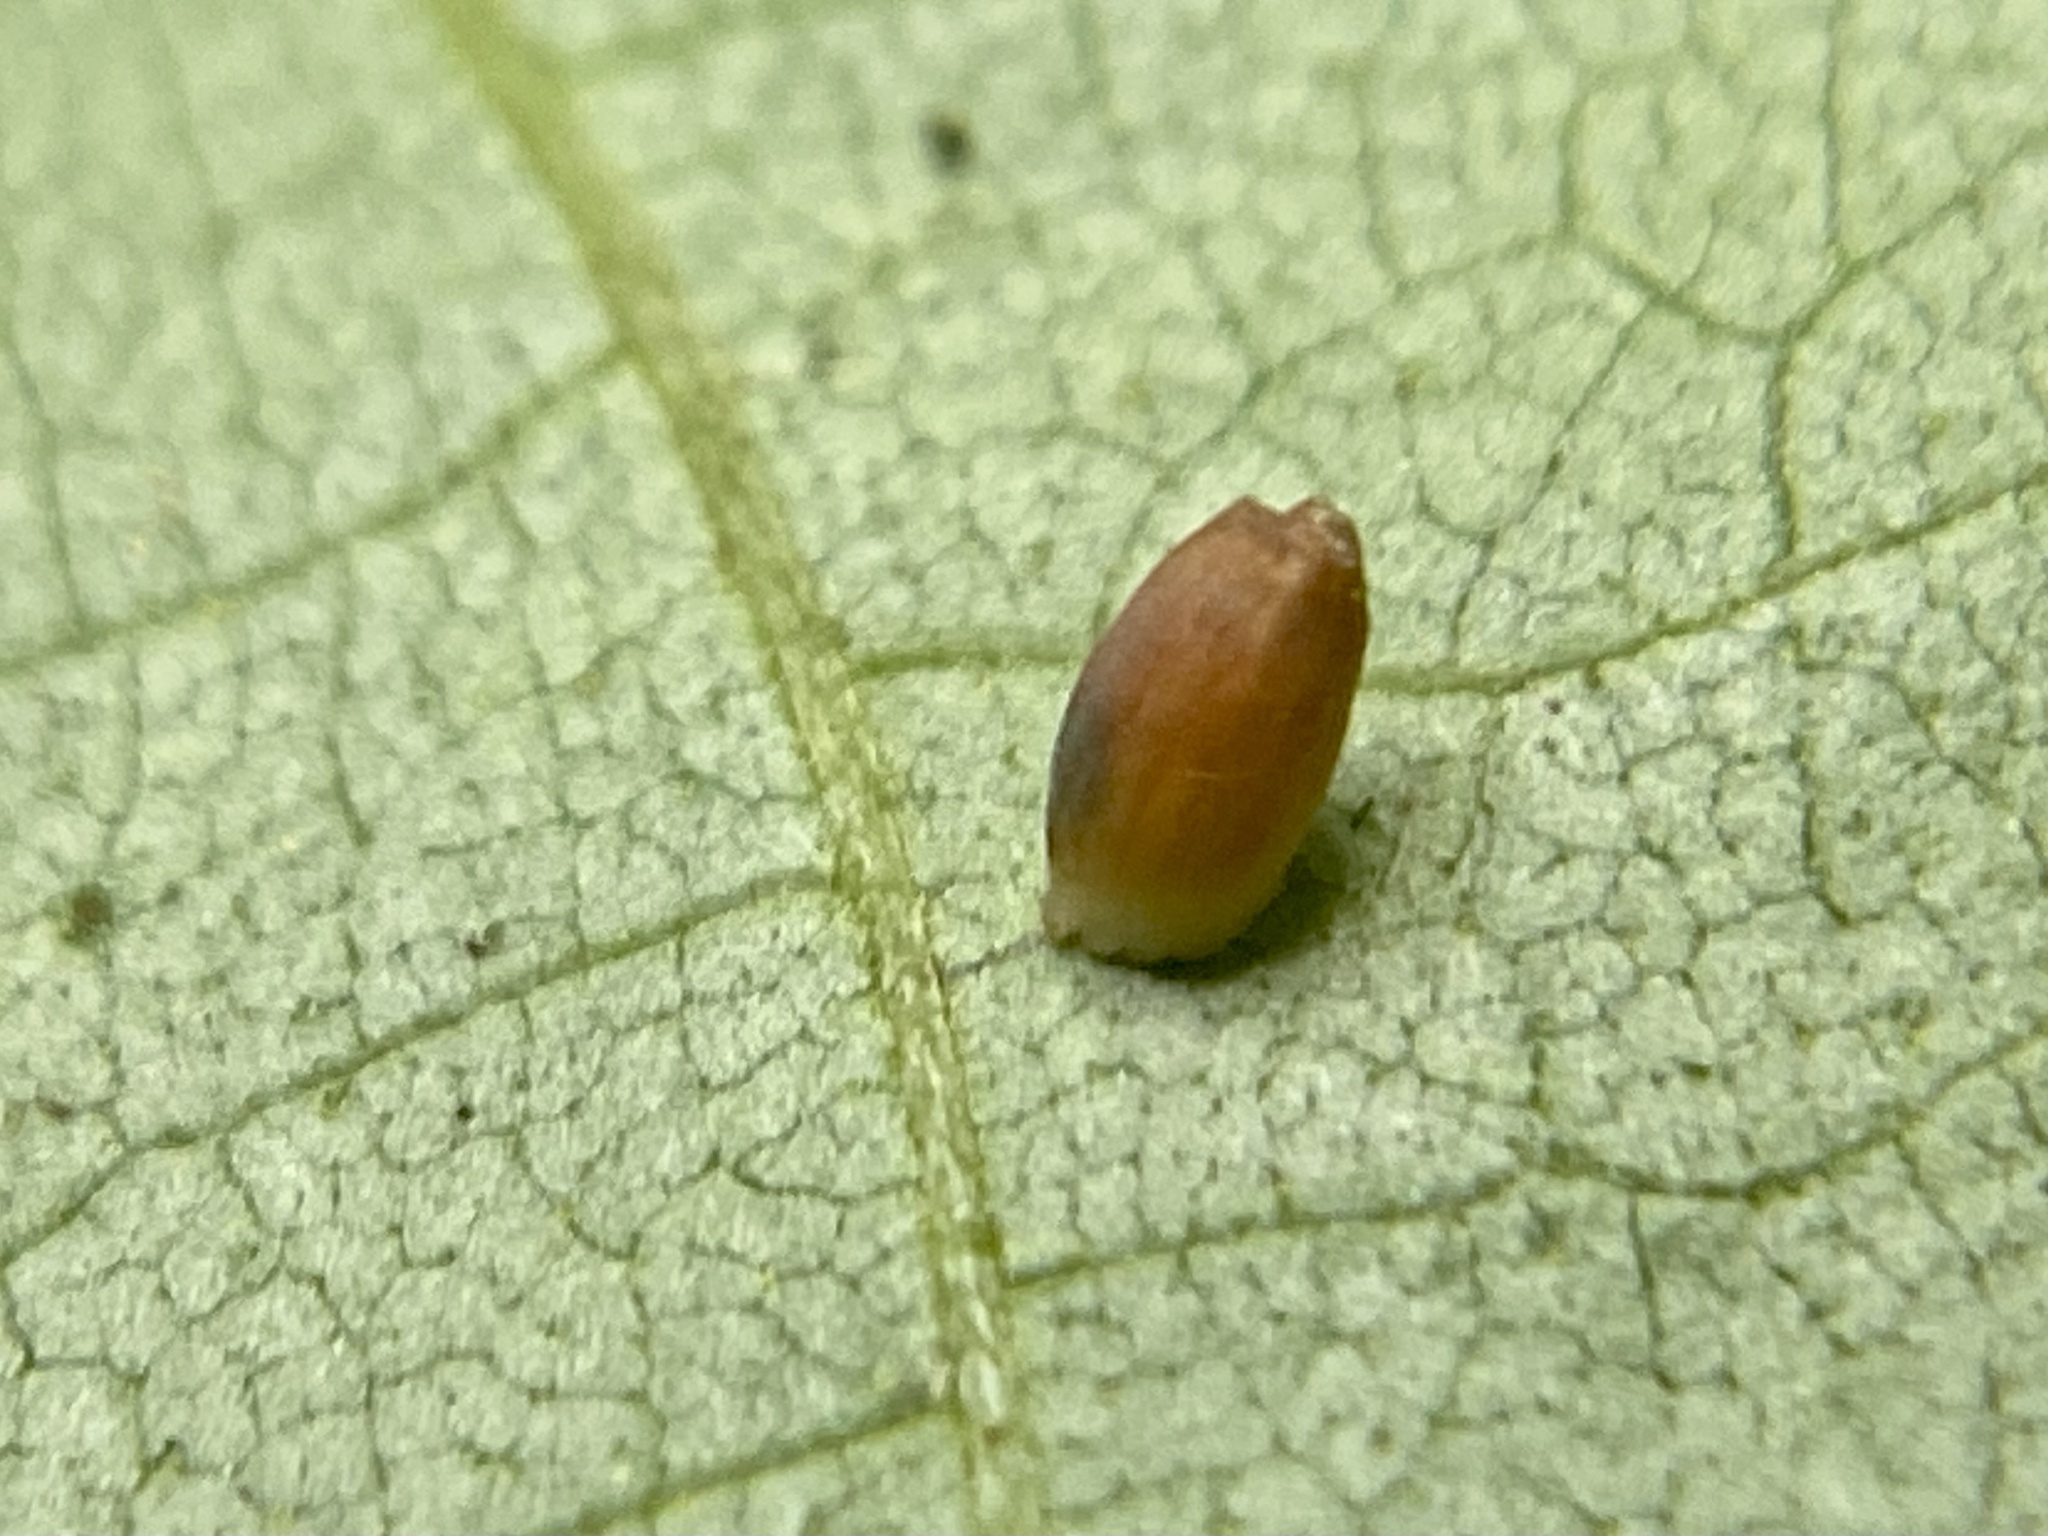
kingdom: Animalia
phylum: Arthropoda
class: Insecta
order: Diptera
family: Cecidomyiidae
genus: Caryomyia
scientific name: Caryomyia urnula
